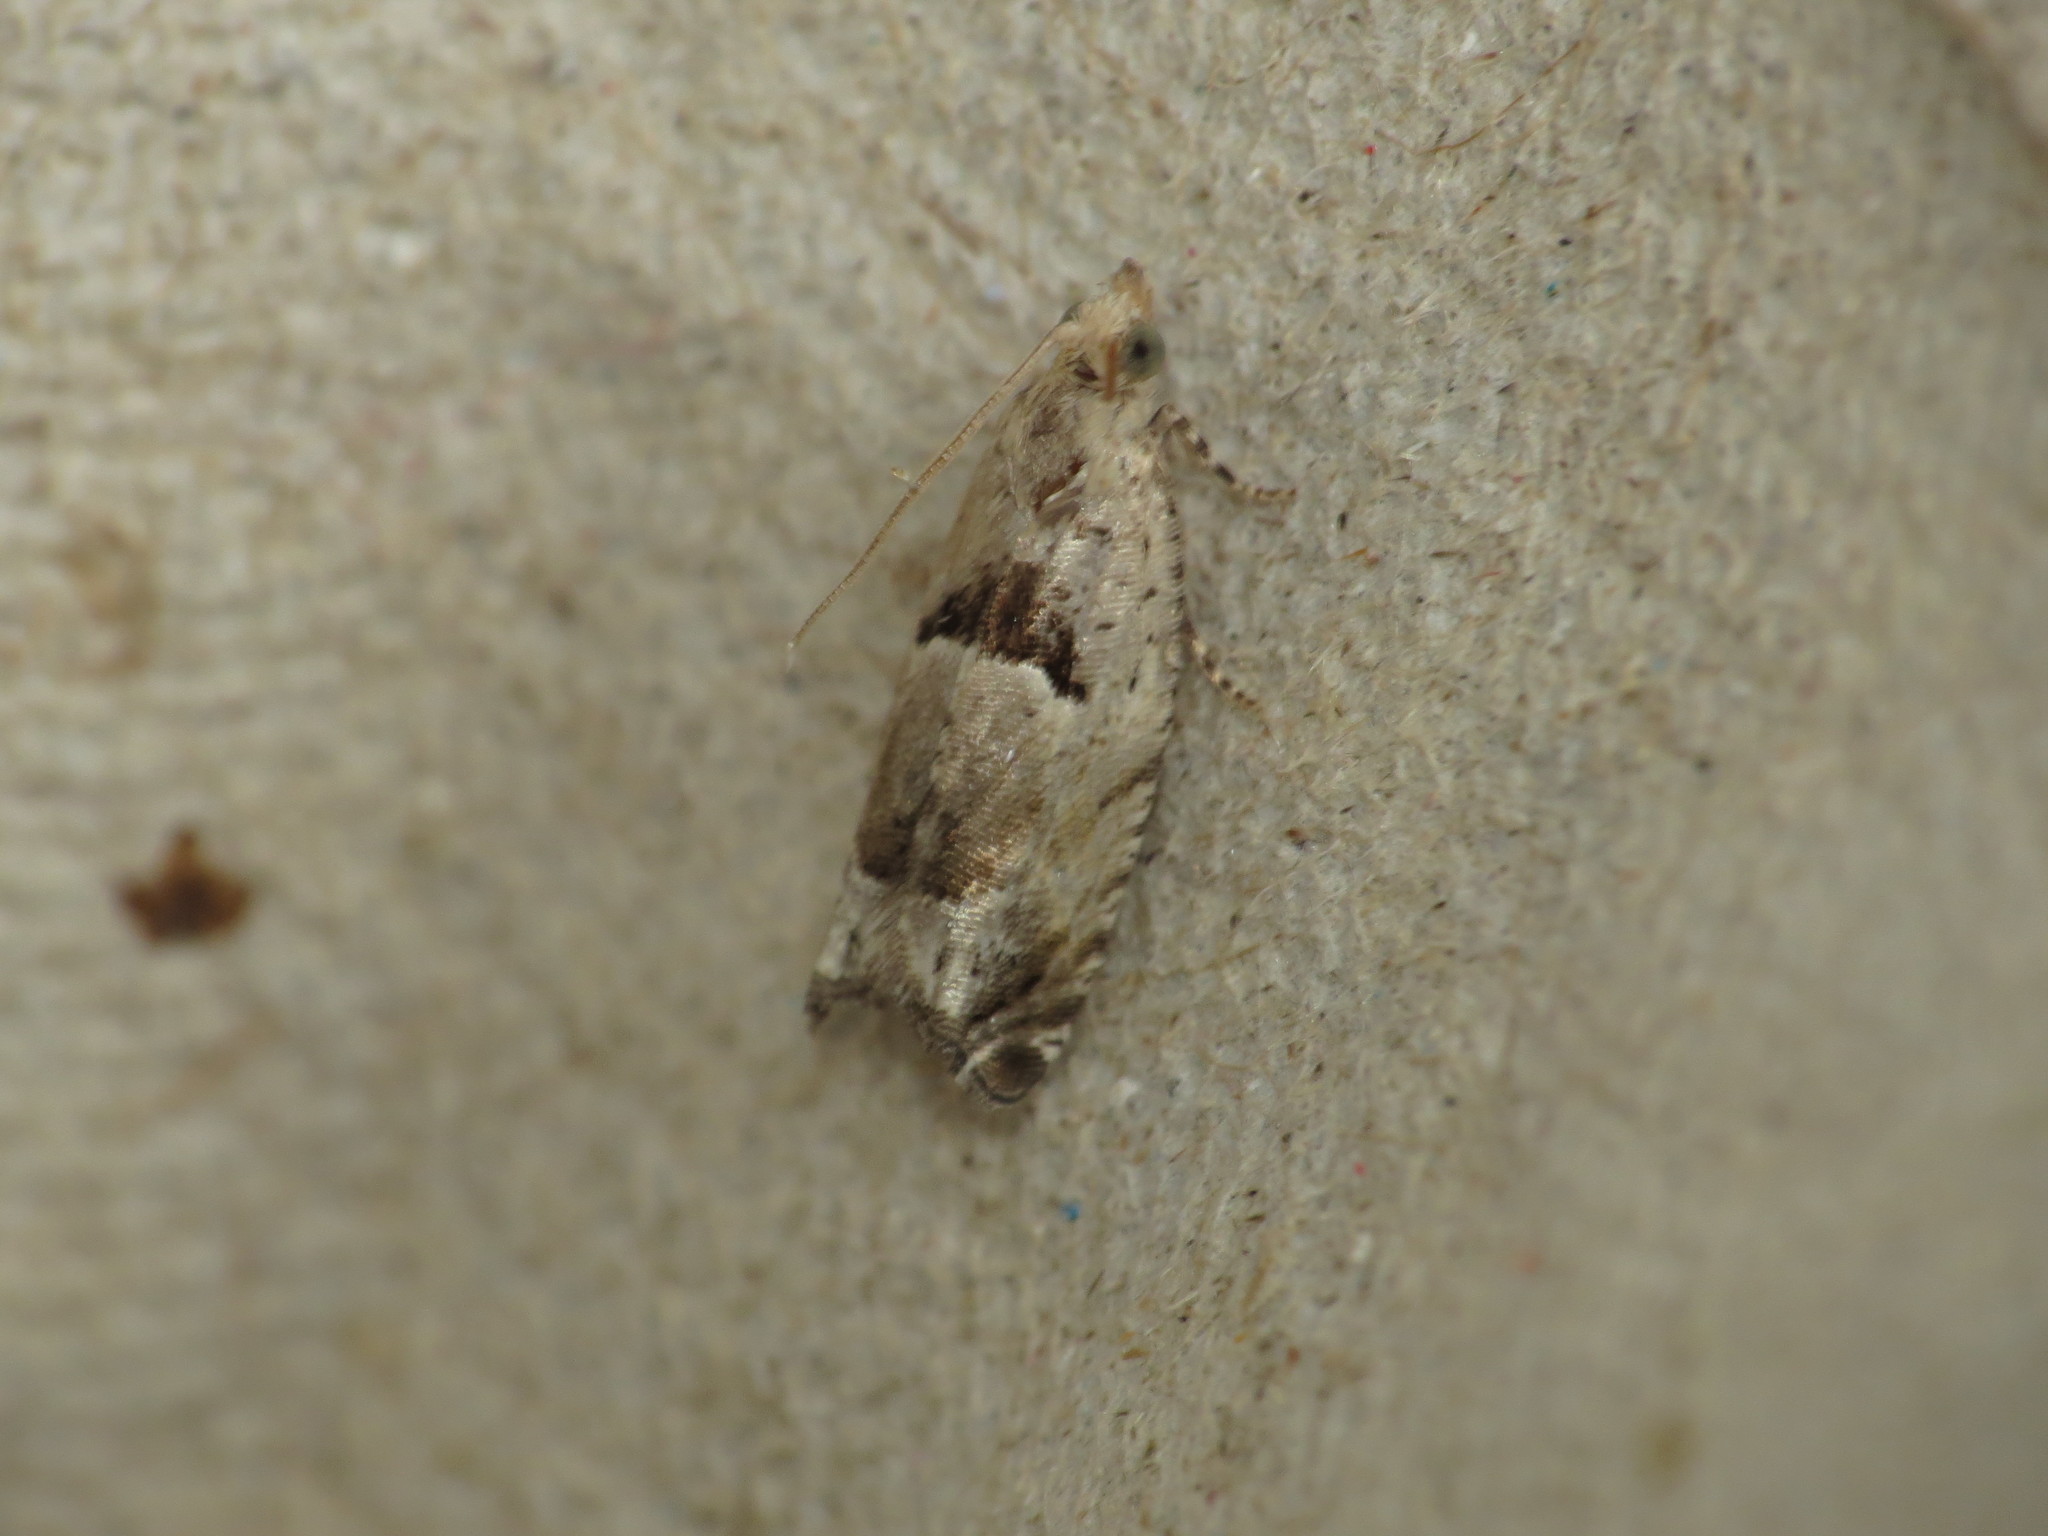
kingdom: Animalia
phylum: Arthropoda
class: Insecta
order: Lepidoptera
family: Tortricidae
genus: Epinotia
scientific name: Epinotia ramella
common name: Small birch bell
